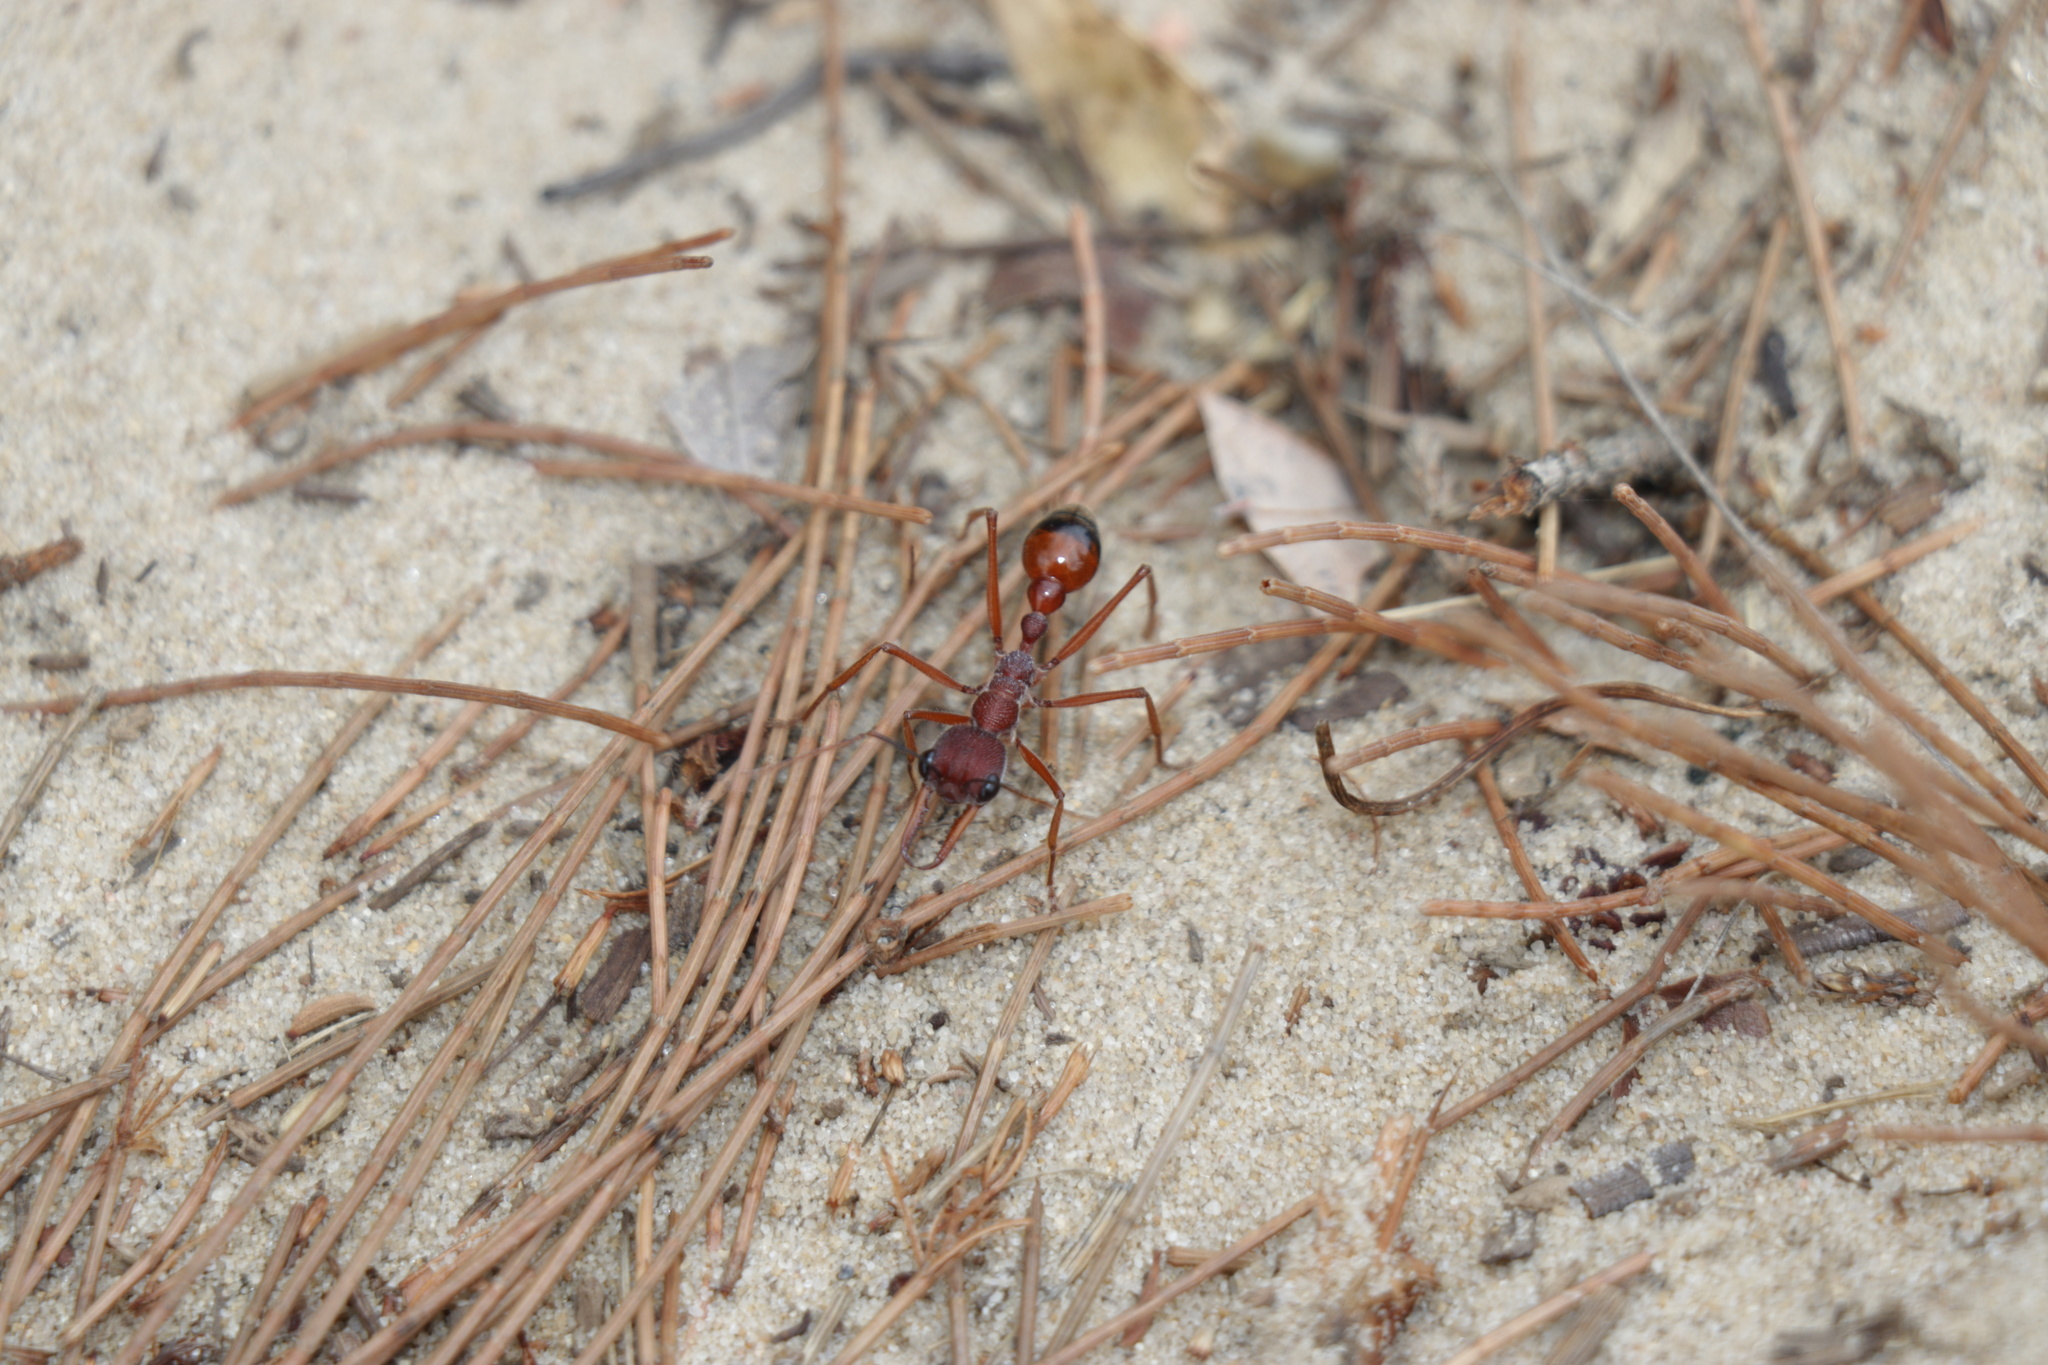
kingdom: Animalia
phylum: Arthropoda
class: Insecta
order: Hymenoptera
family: Formicidae
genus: Myrmecia
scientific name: Myrmecia nigriscapa
